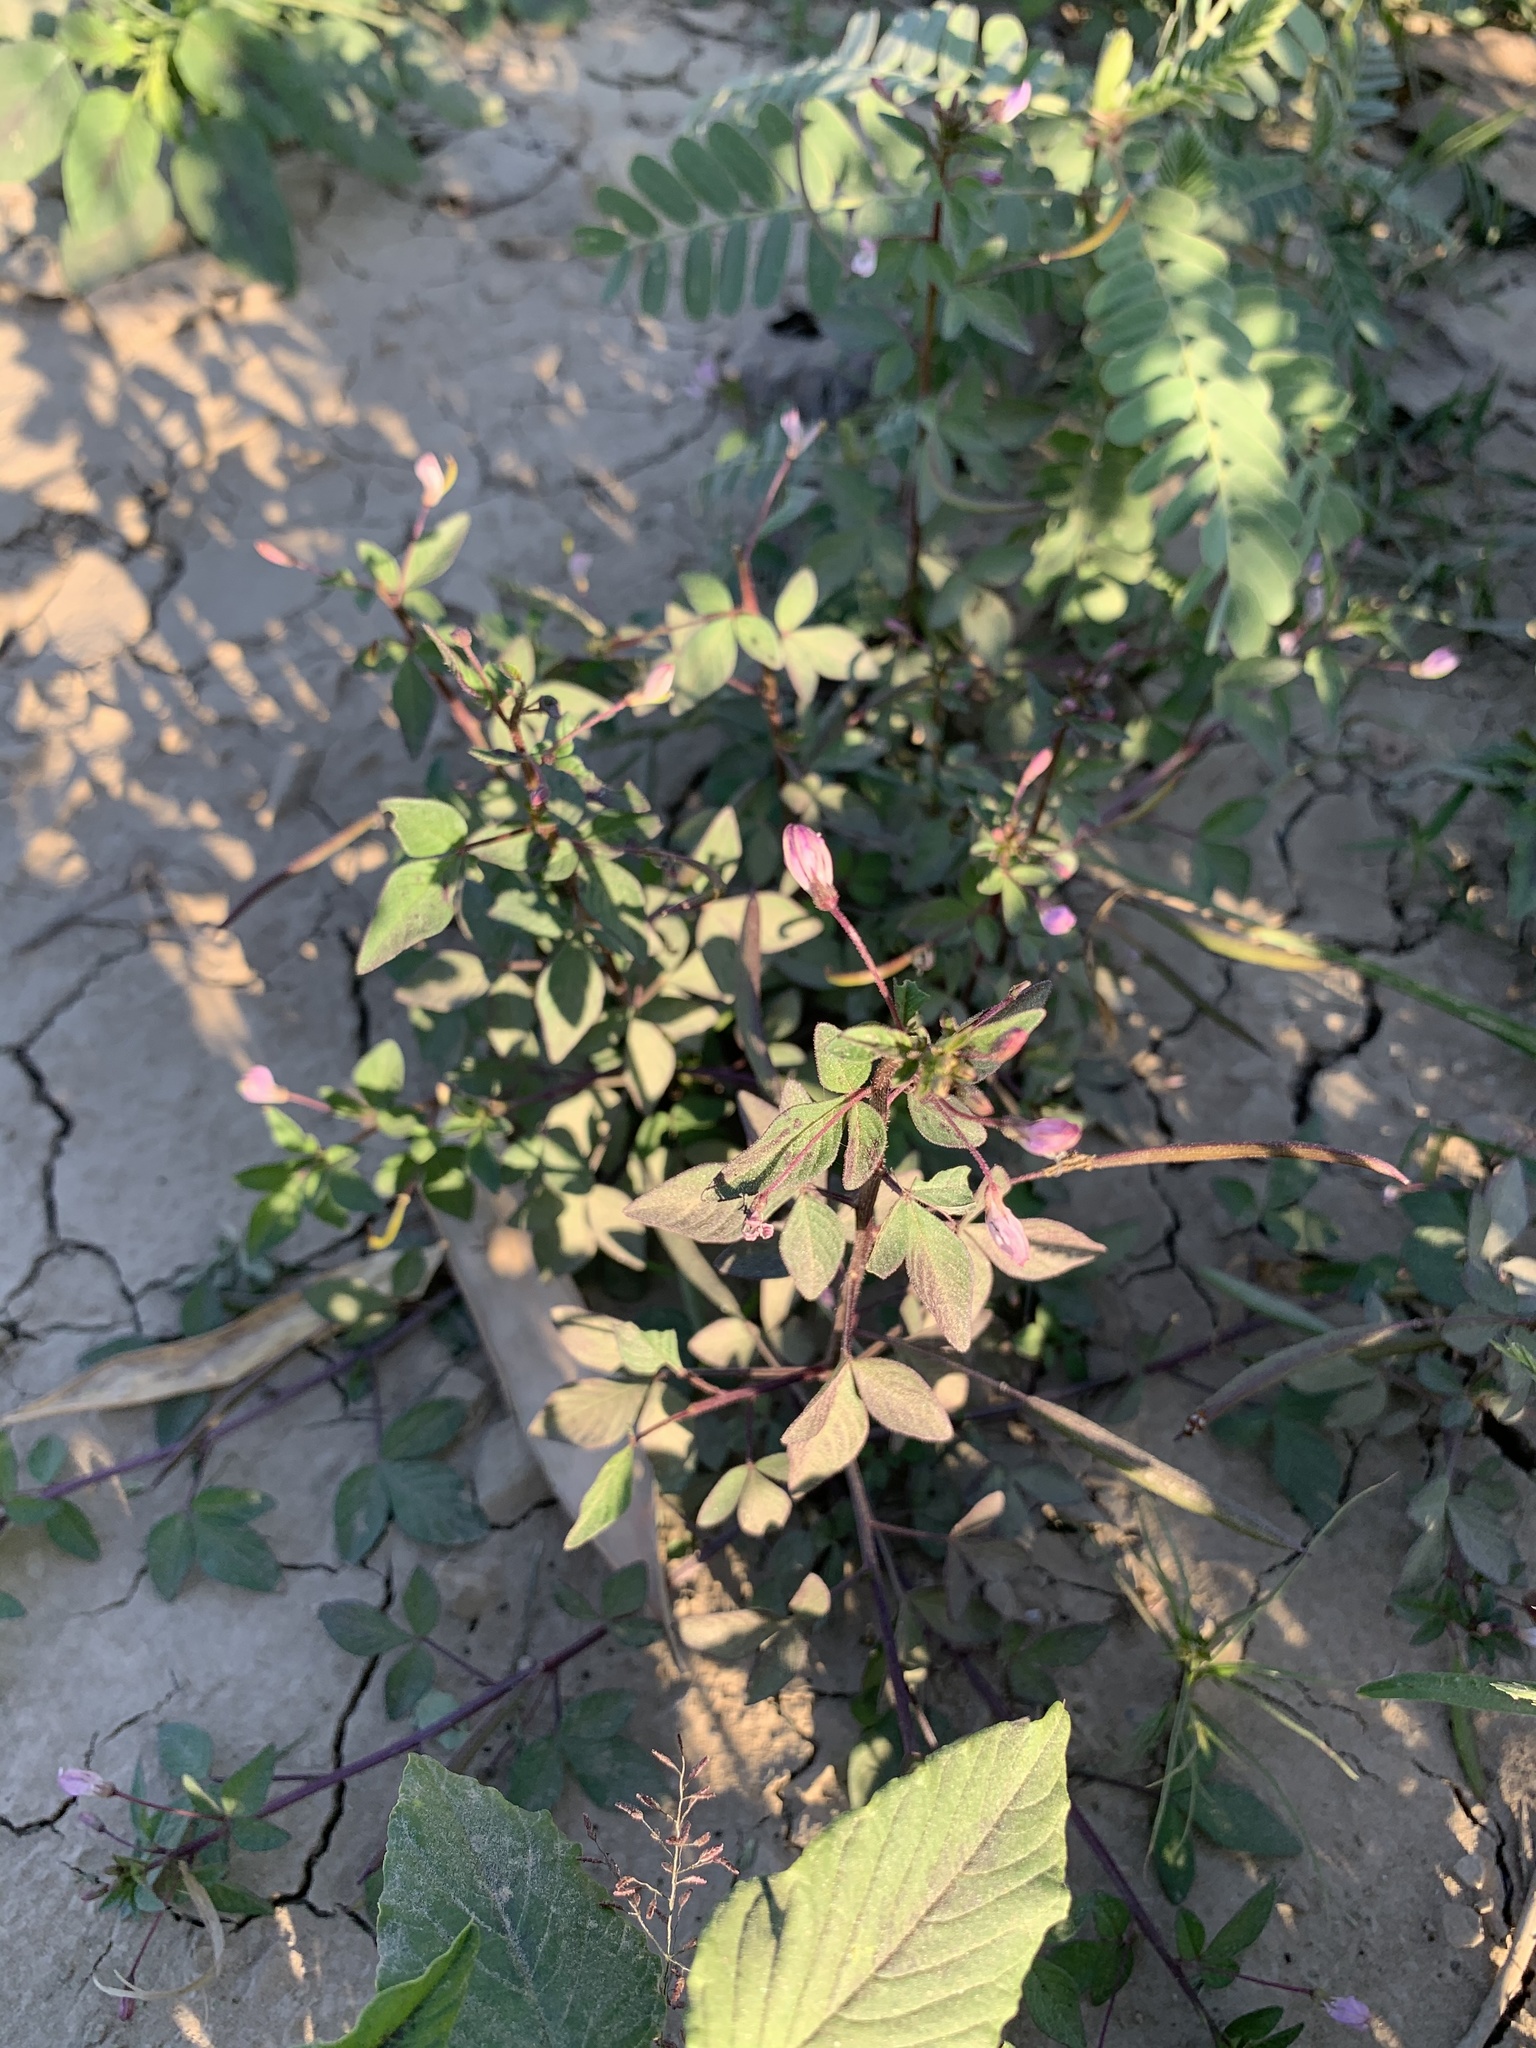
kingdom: Plantae
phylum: Tracheophyta
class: Magnoliopsida
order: Brassicales
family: Cleomaceae
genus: Sieruela
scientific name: Sieruela rutidosperma
